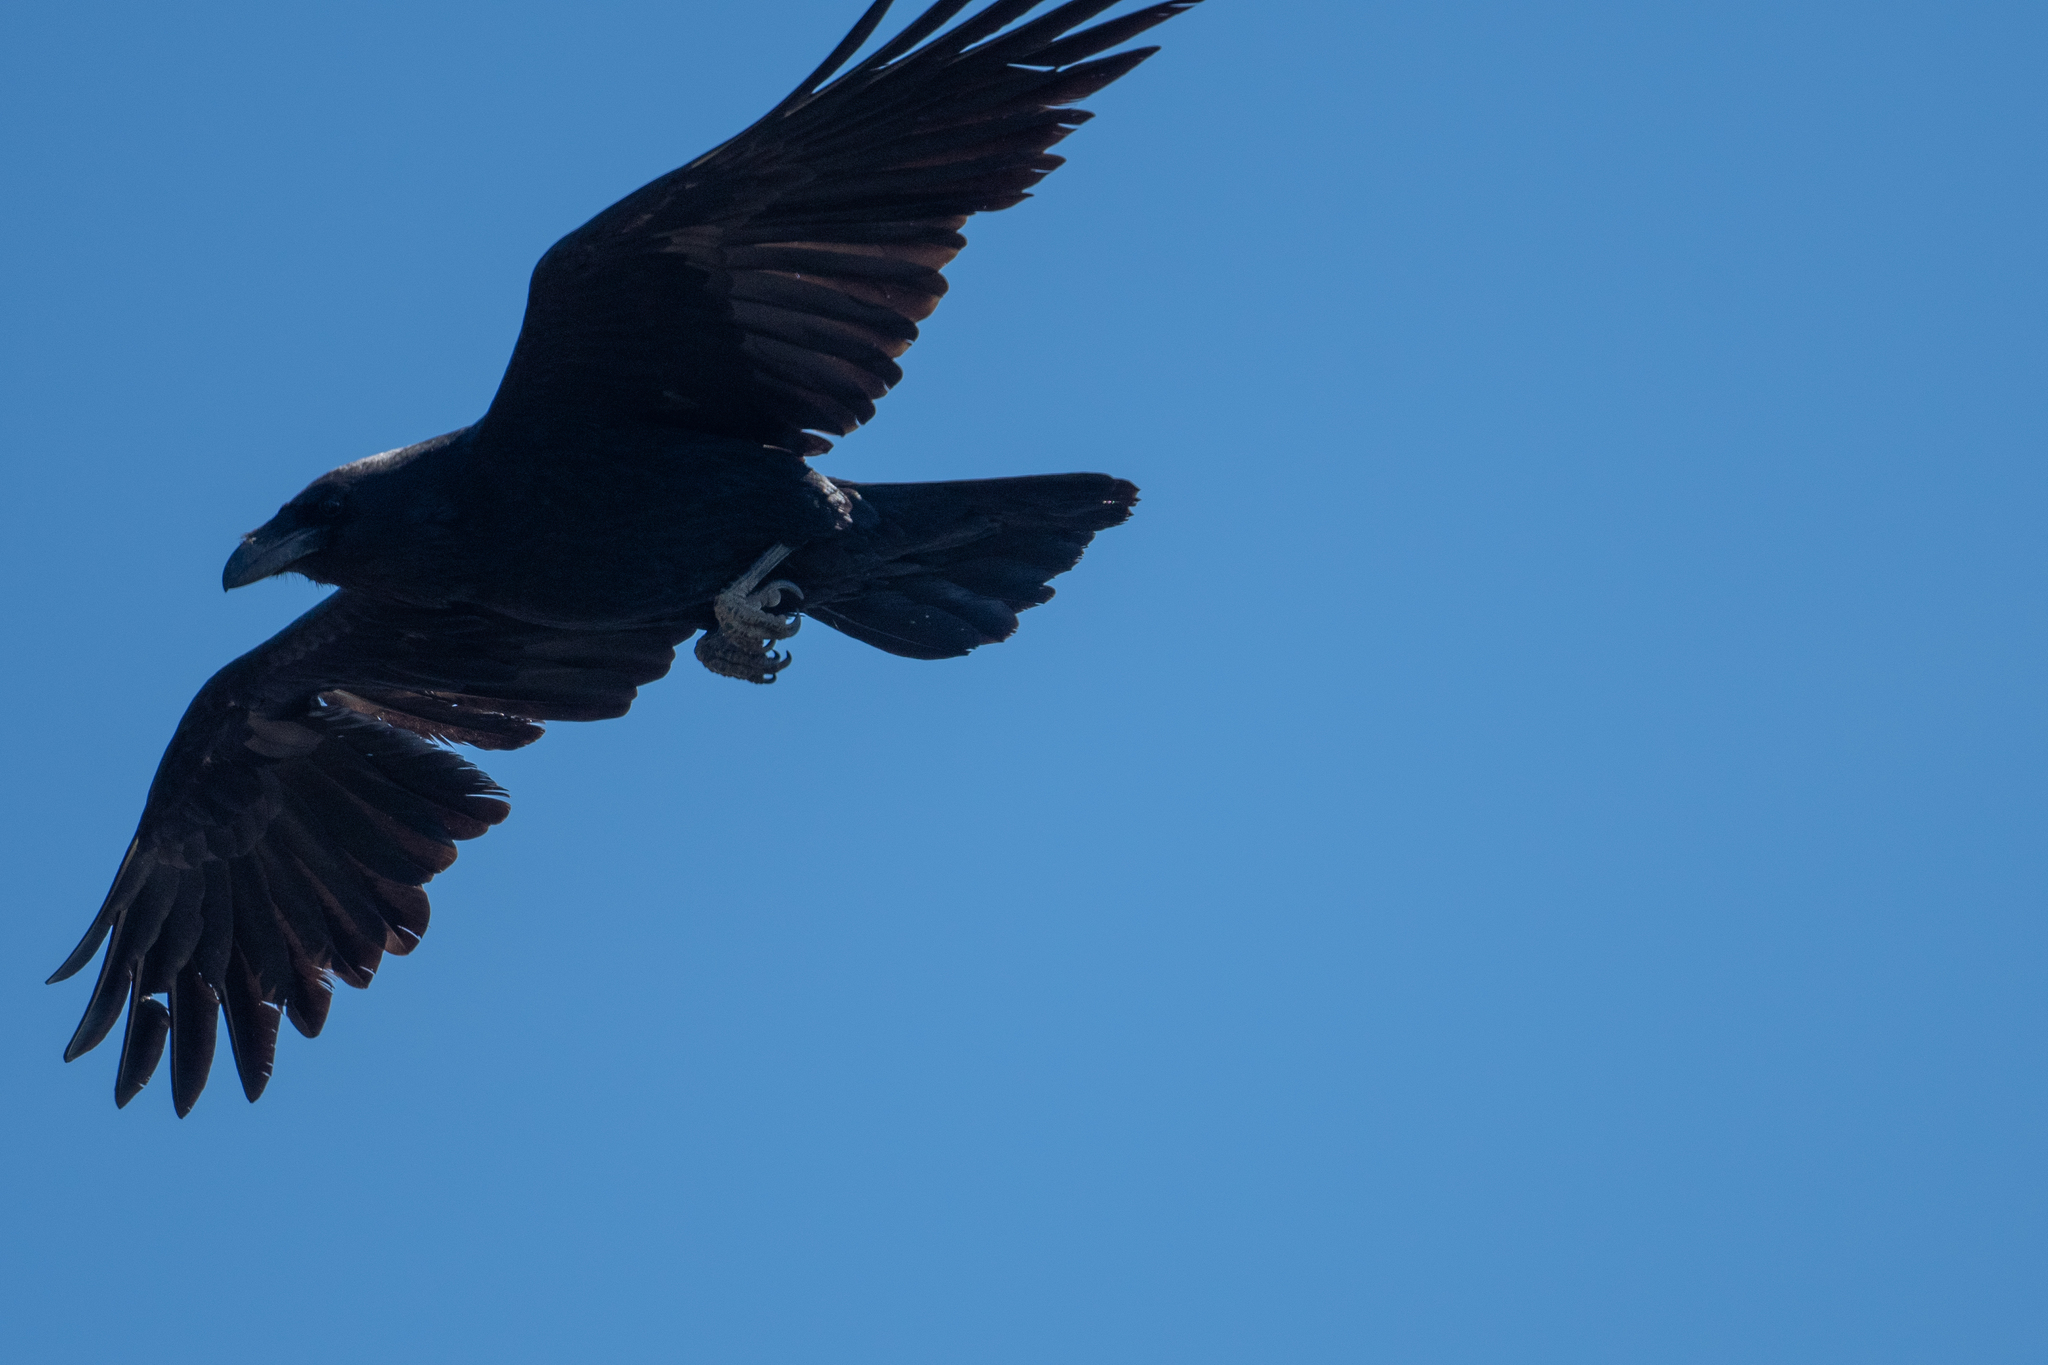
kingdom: Animalia
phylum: Chordata
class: Aves
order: Passeriformes
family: Corvidae
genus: Corvus
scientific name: Corvus corax
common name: Common raven
